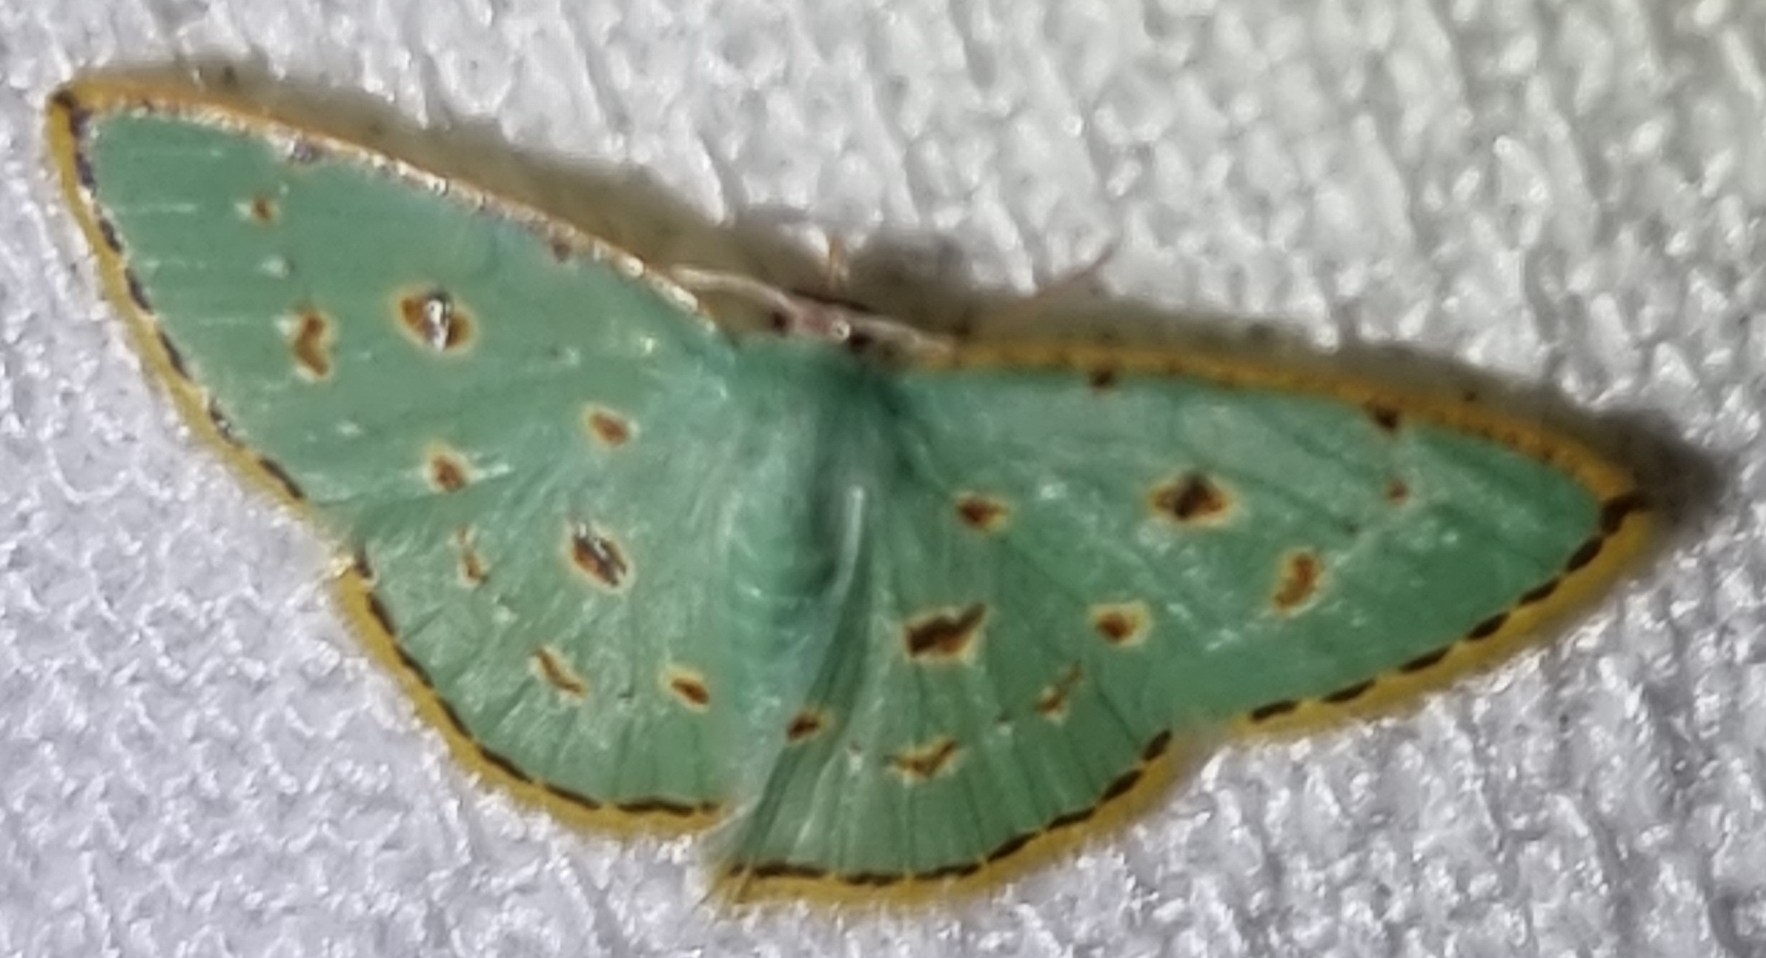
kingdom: Animalia
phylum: Arthropoda
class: Insecta
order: Lepidoptera
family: Geometridae
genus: Comostola
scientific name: Comostola laesaria
